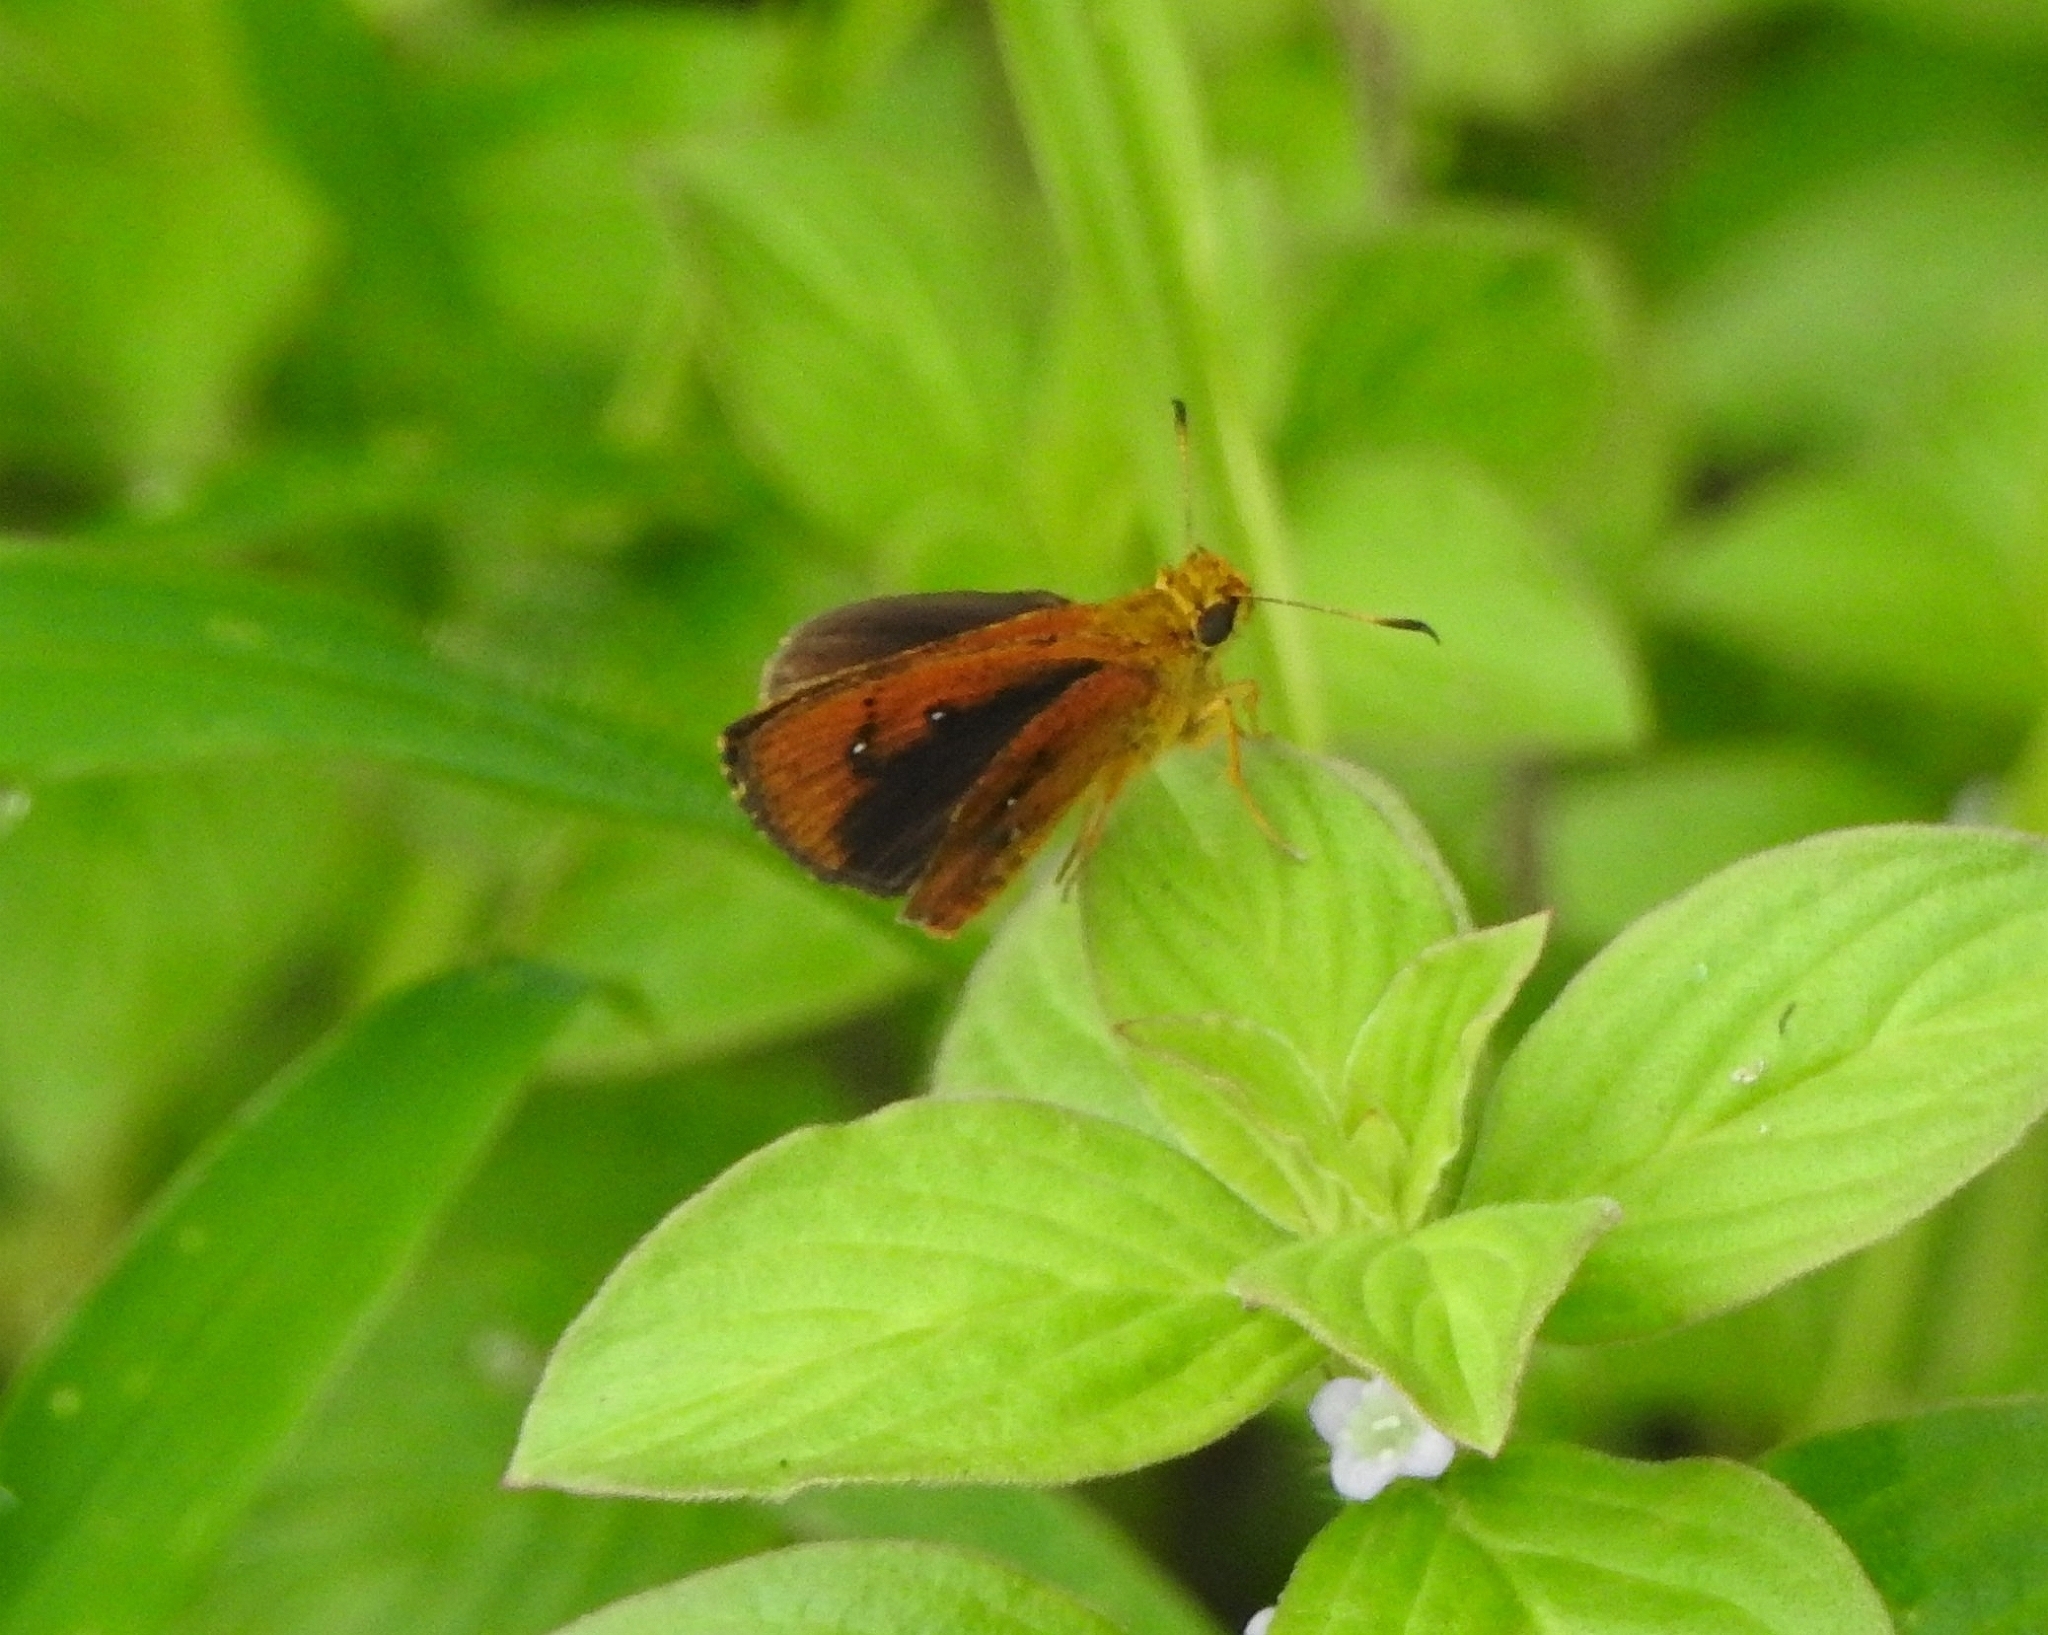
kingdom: Animalia
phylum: Arthropoda
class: Insecta
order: Lepidoptera
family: Hesperiidae
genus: Iambrix
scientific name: Iambrix salsala
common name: Chestnut bob
